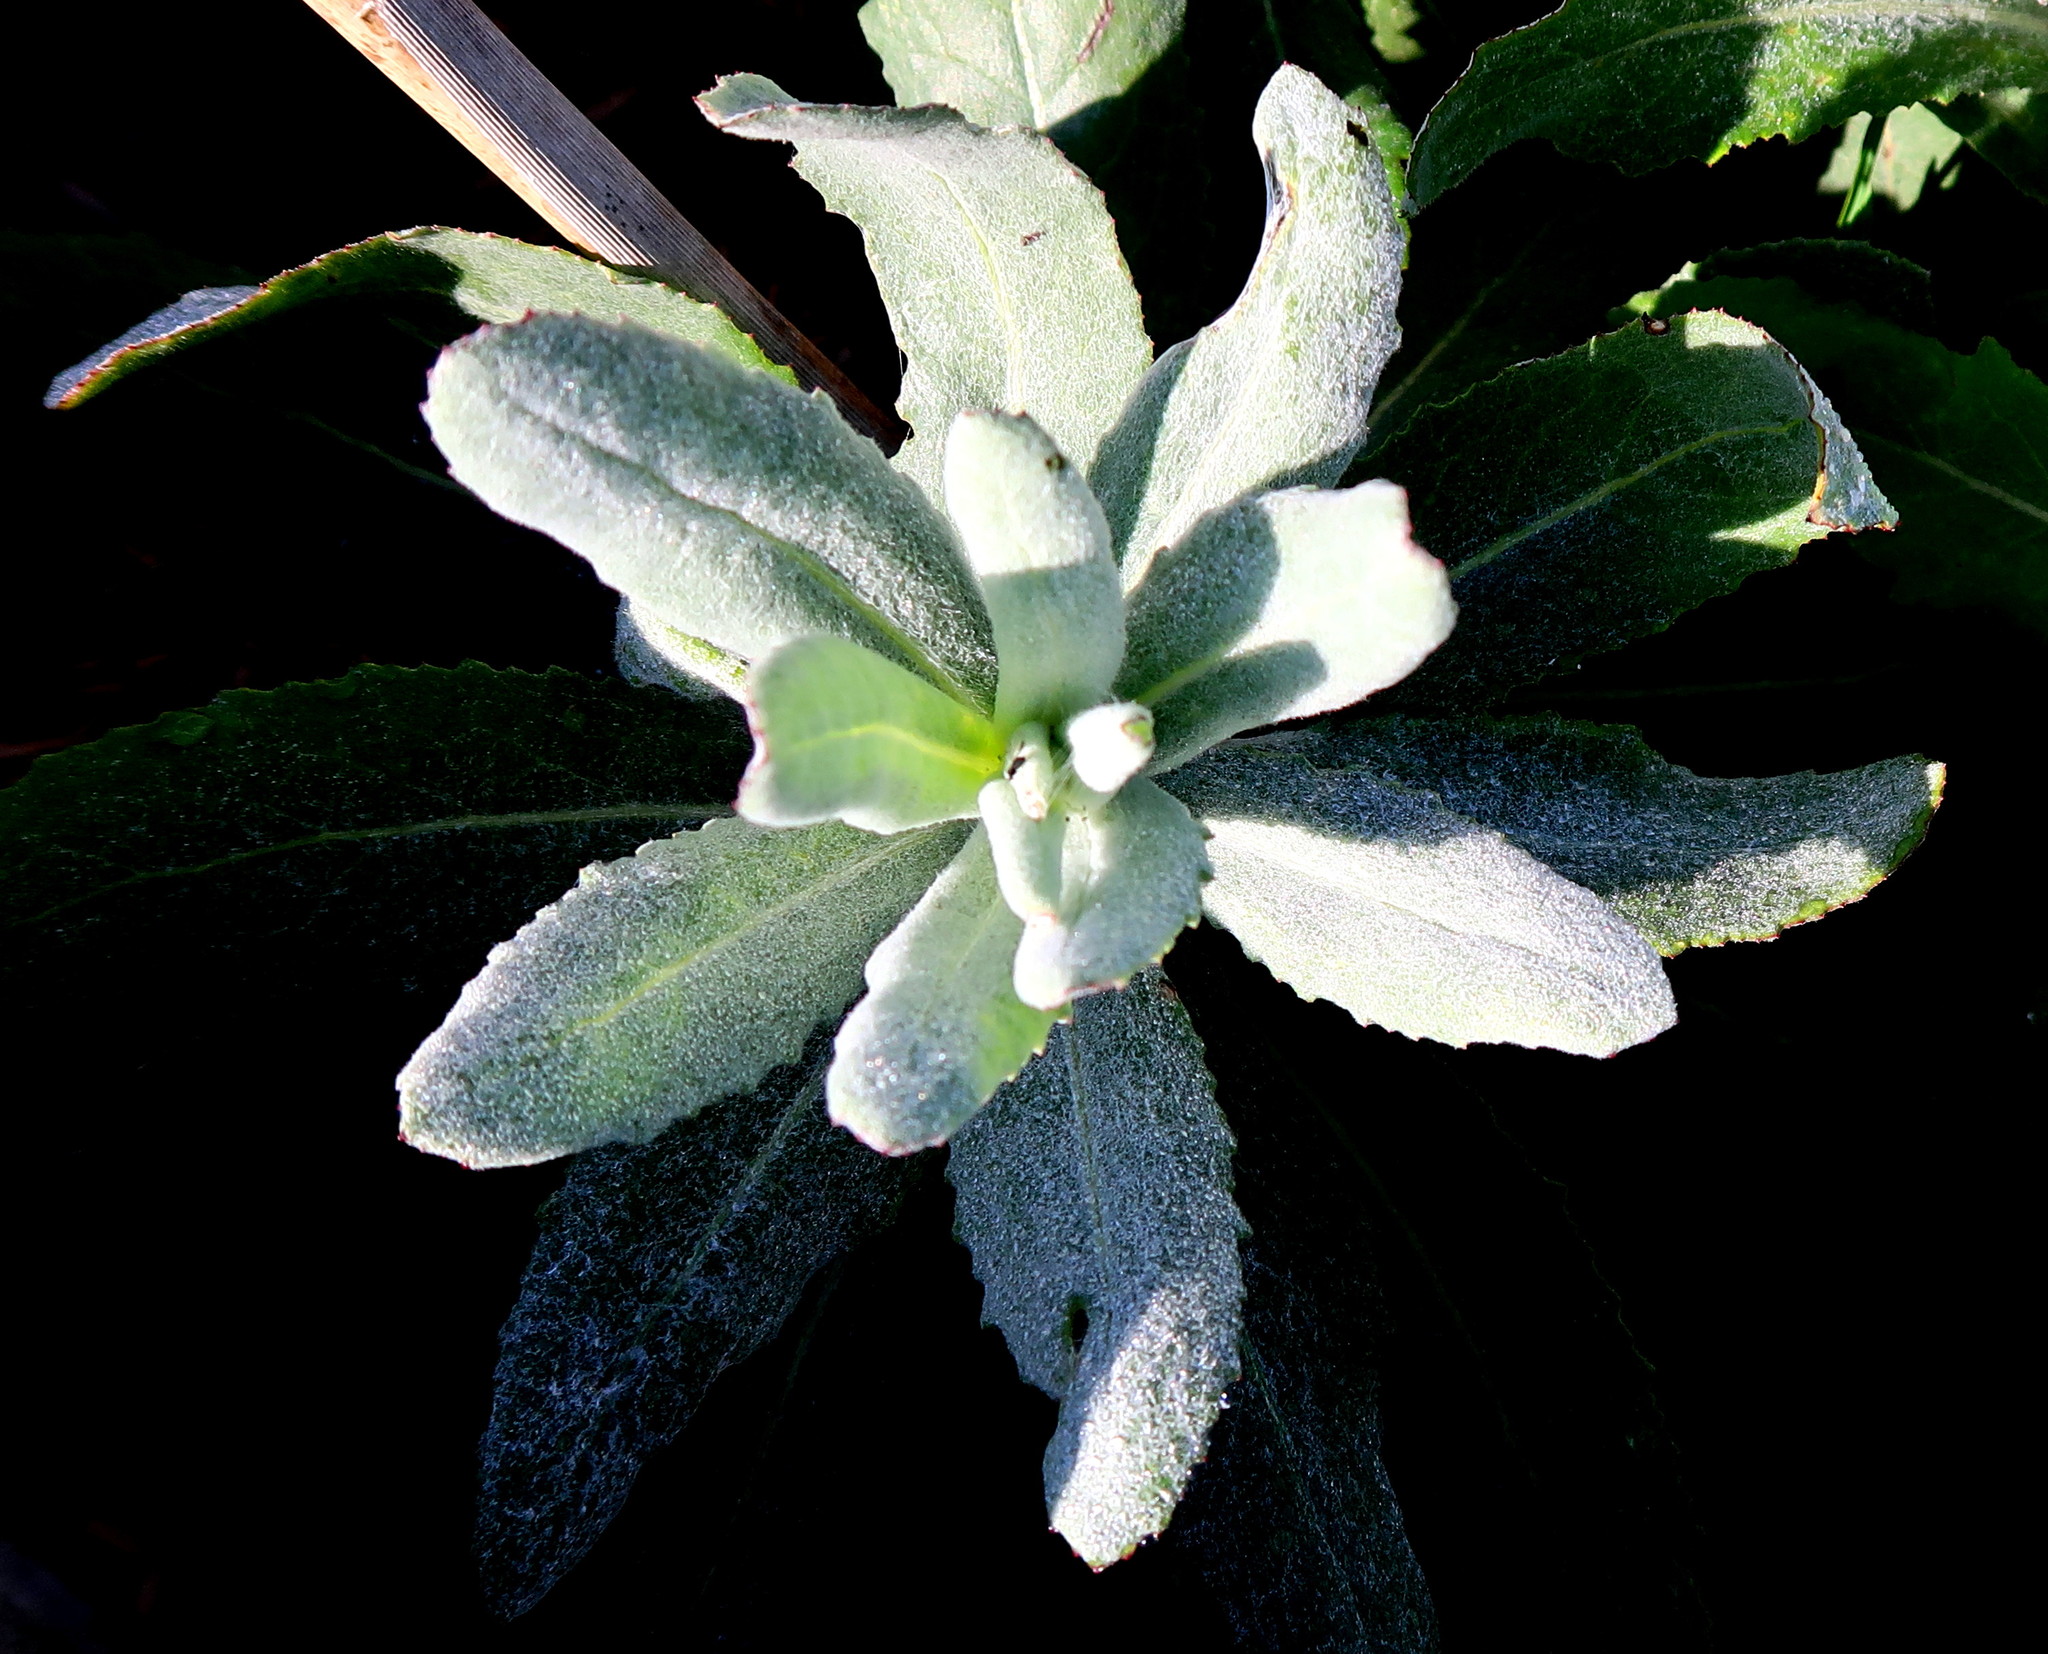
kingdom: Plantae
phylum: Tracheophyta
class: Magnoliopsida
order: Asterales
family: Asteraceae
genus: Senecio
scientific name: Senecio lanceus
